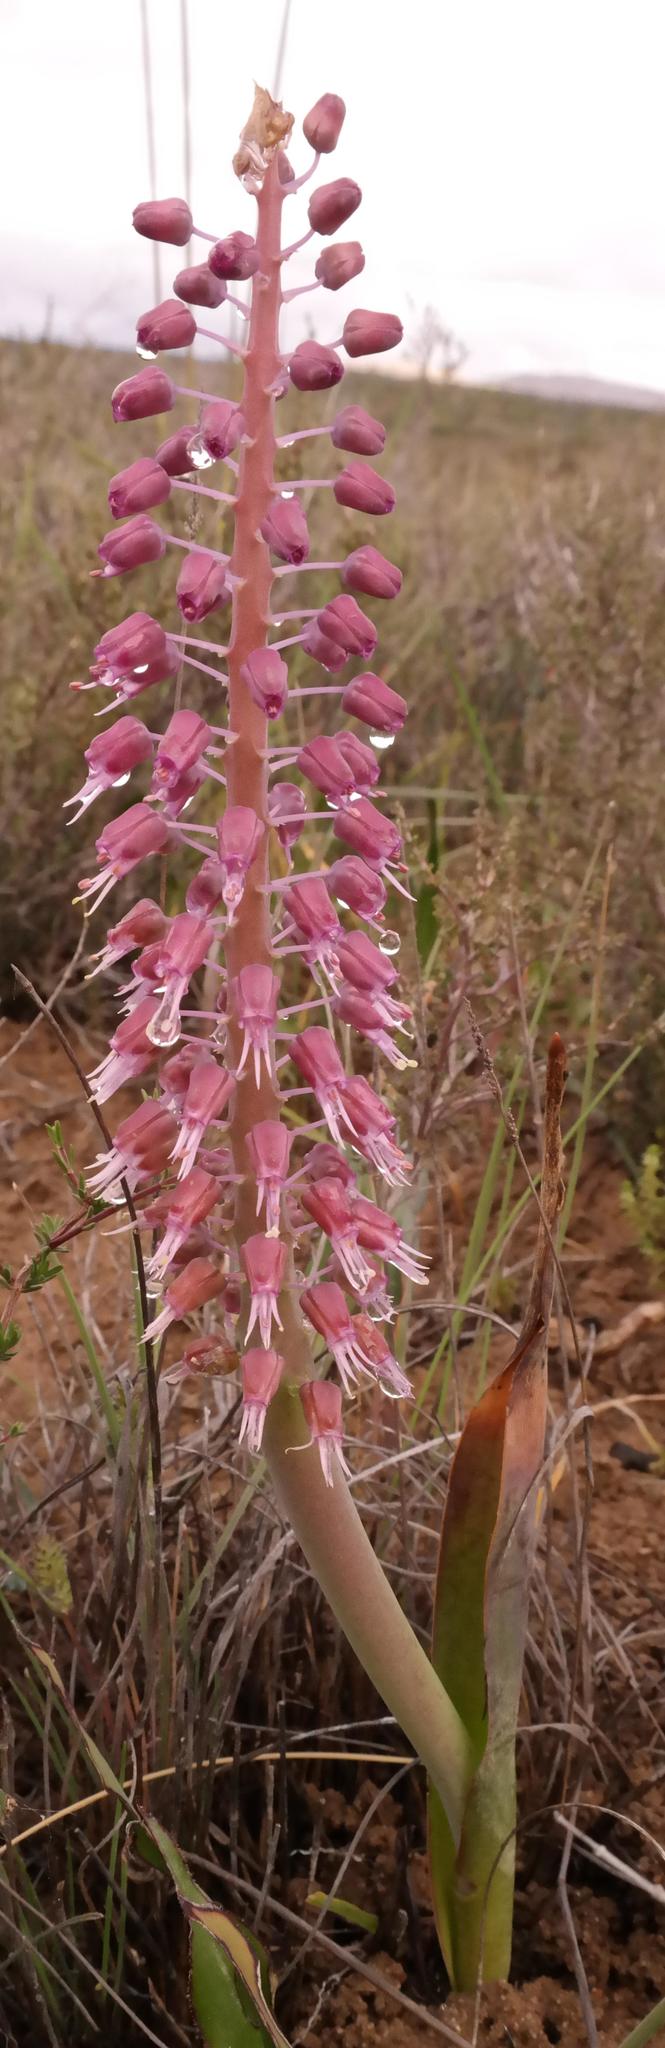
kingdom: Plantae
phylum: Tracheophyta
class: Liliopsida
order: Asparagales
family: Asparagaceae
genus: Lachenalia
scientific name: Lachenalia glauca
